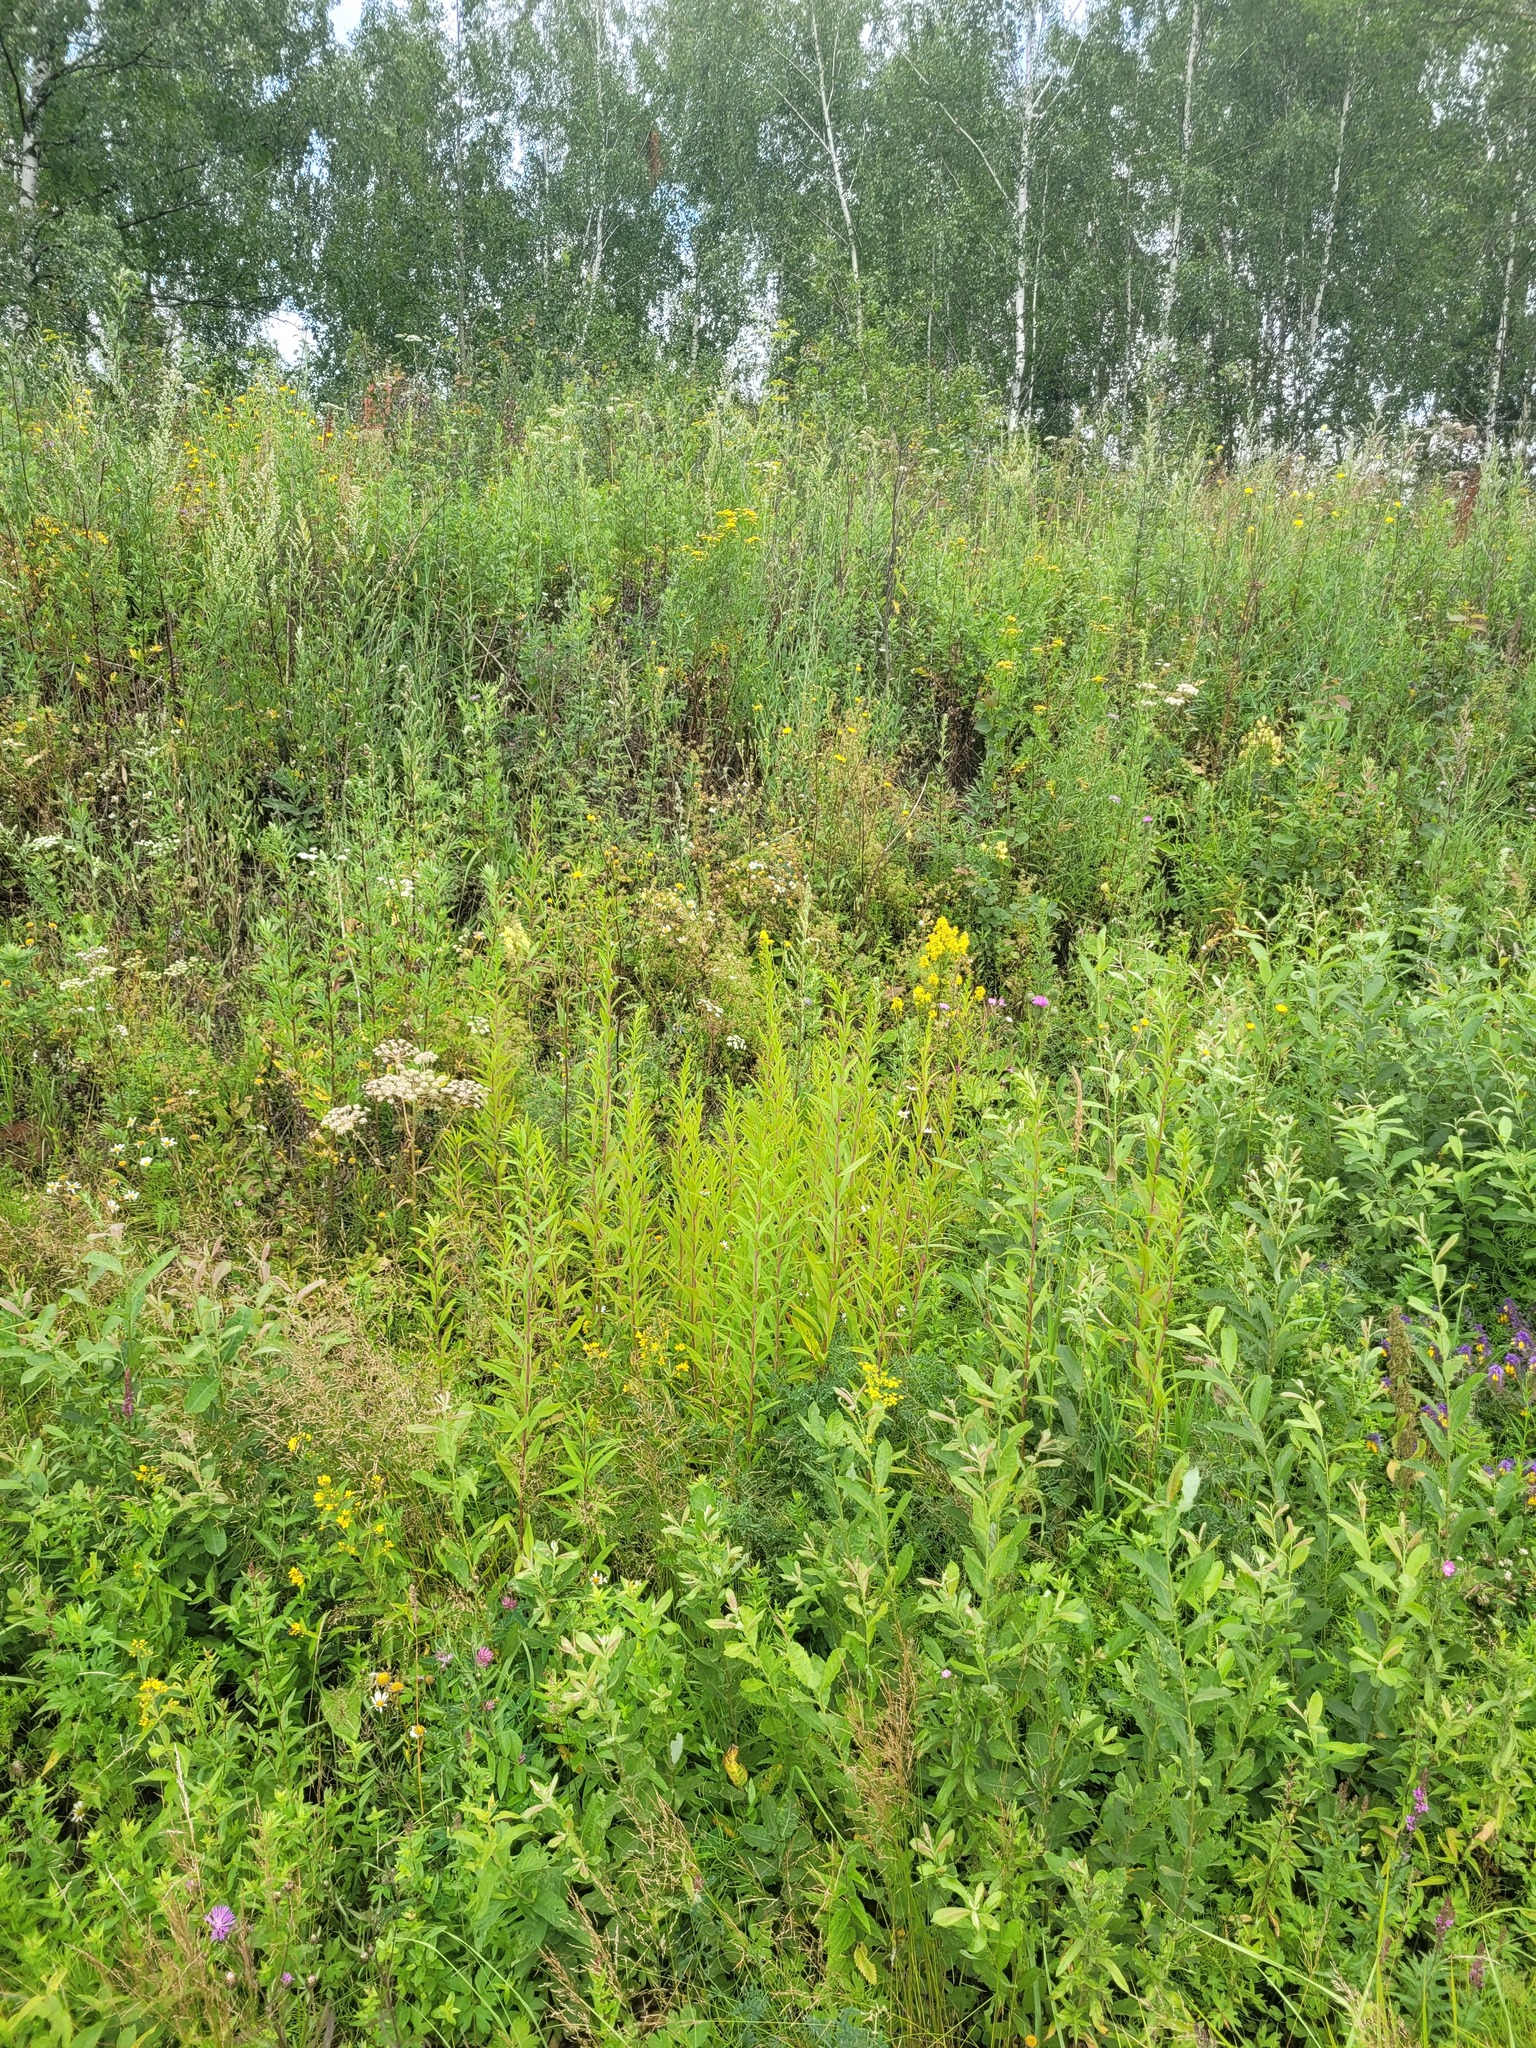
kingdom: Plantae
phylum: Tracheophyta
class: Magnoliopsida
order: Asterales
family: Asteraceae
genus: Solidago
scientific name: Solidago gigantea
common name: Giant goldenrod
